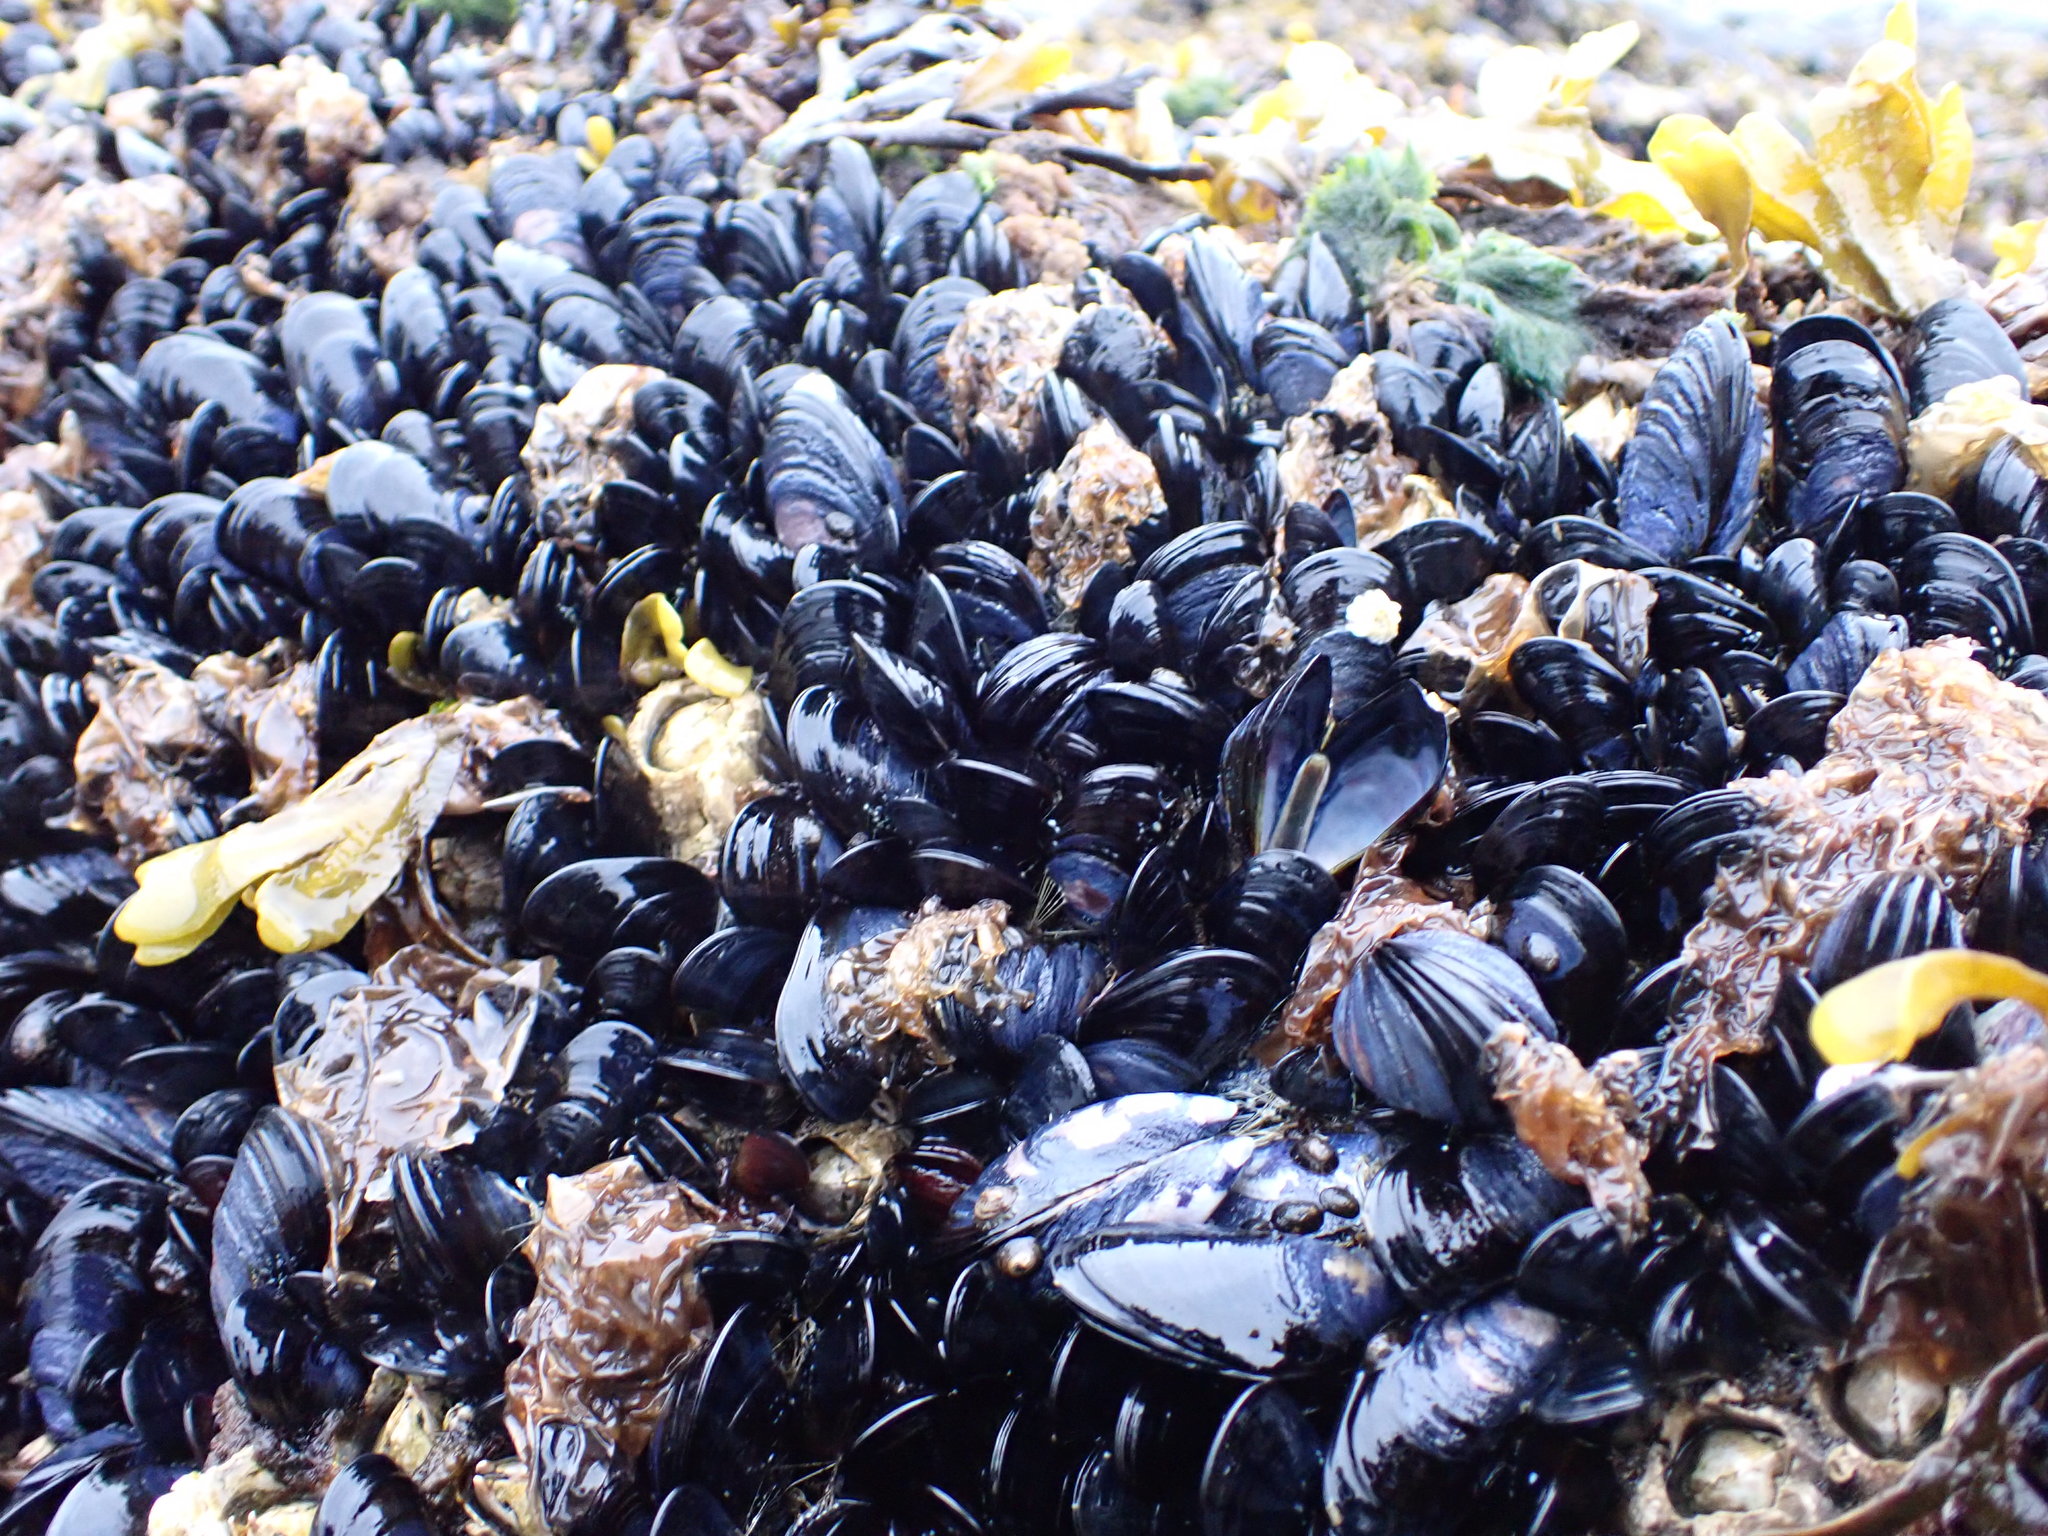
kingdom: Animalia
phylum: Mollusca
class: Bivalvia
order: Mytilida
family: Mytilidae
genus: Mytilus
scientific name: Mytilus trossulus
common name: Northern blue mussel
